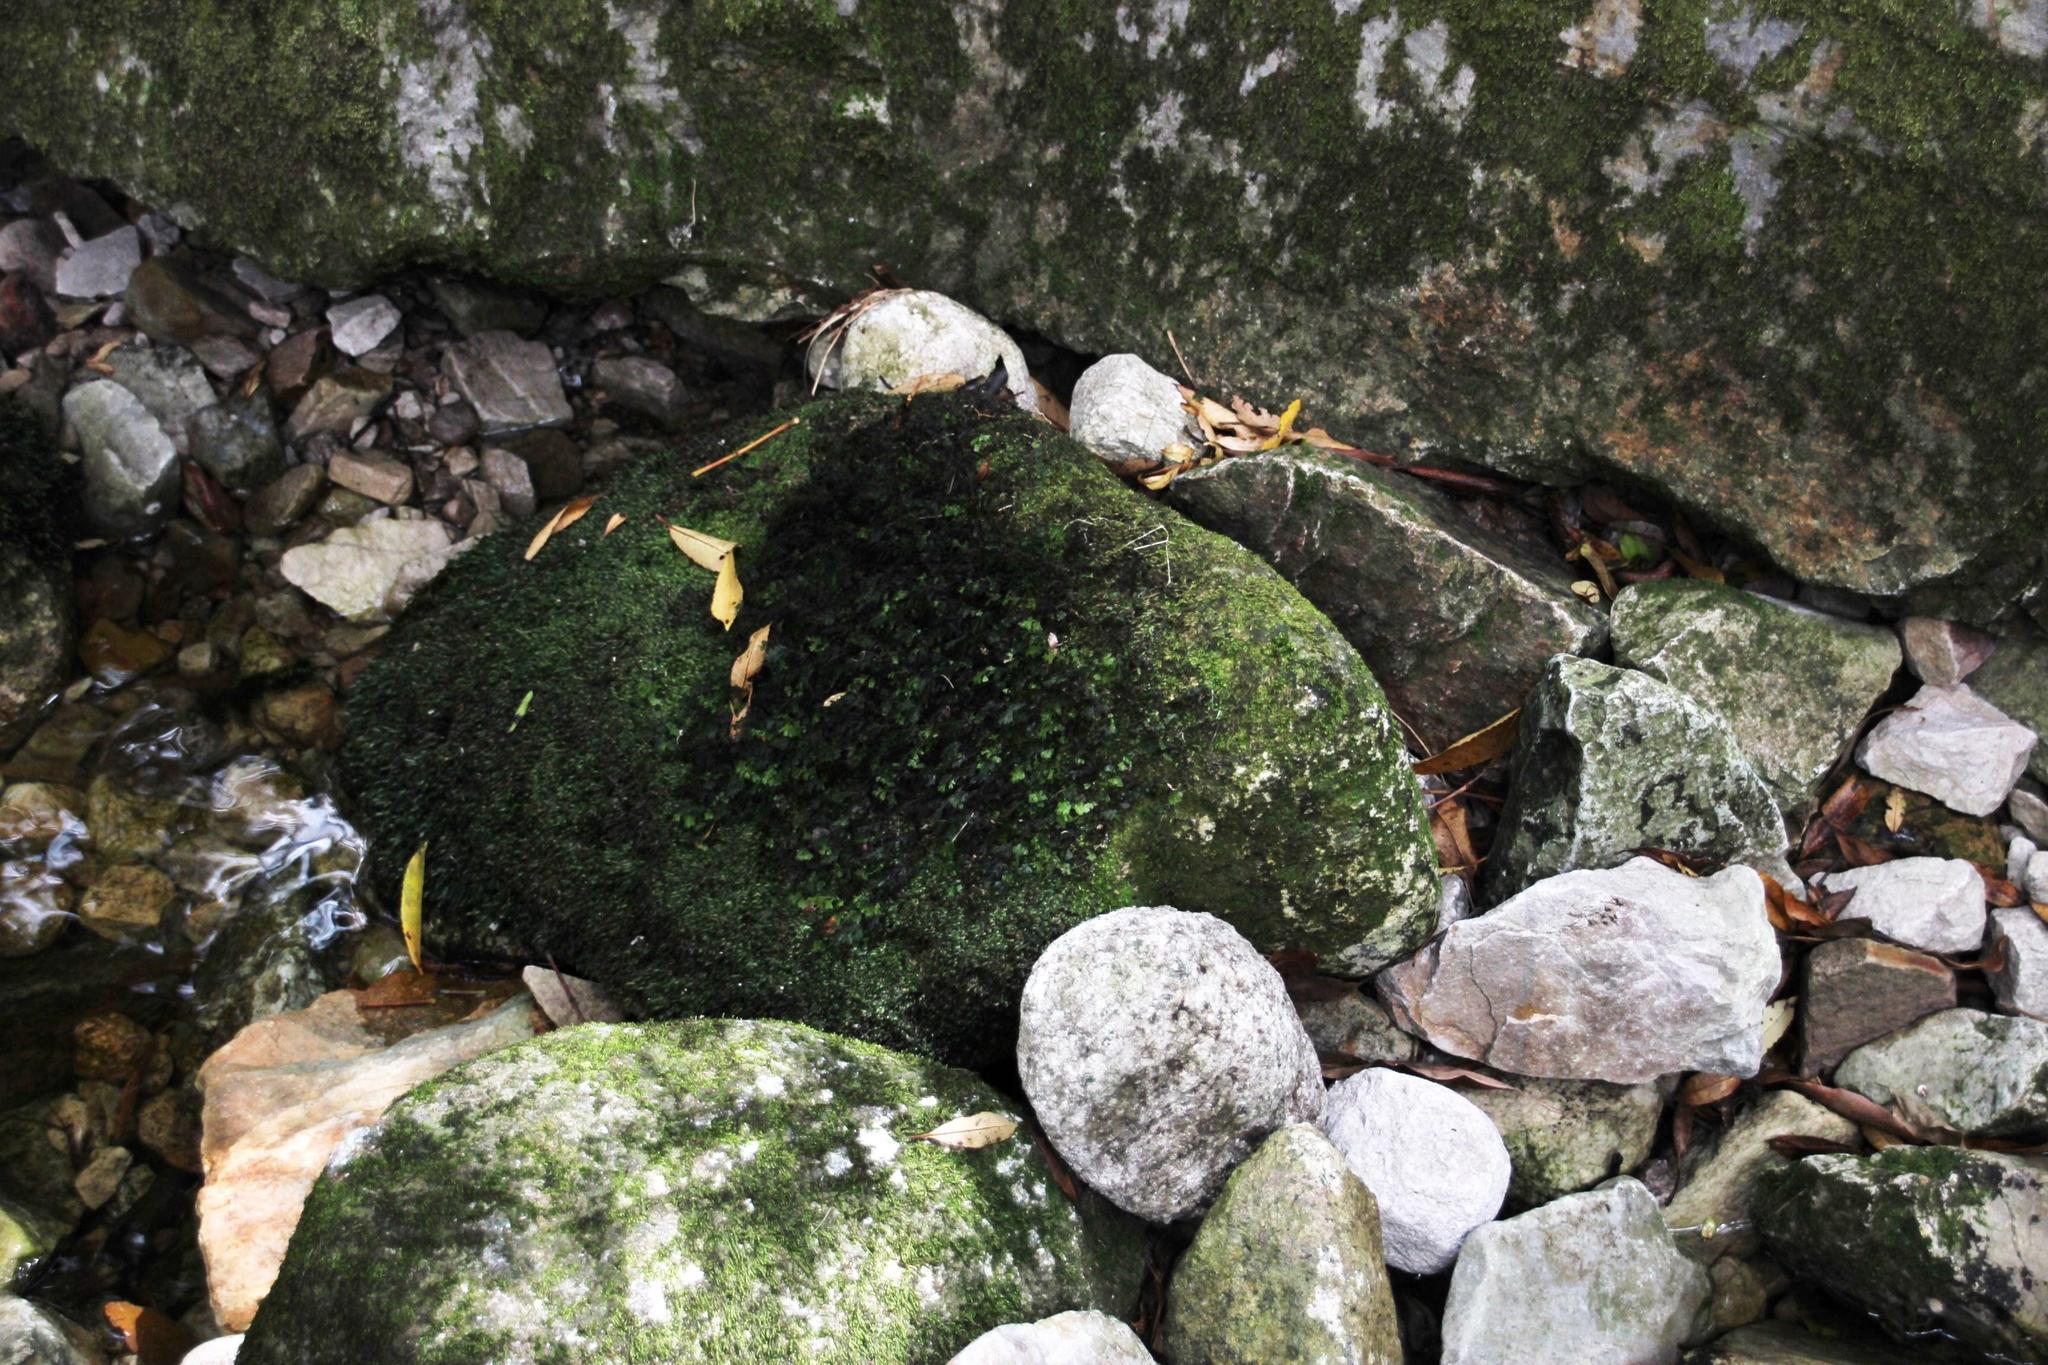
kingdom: Plantae
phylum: Tracheophyta
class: Polypodiopsida
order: Hymenophyllales
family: Hymenophyllaceae
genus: Hymenophyllum
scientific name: Hymenophyllum tunbrigense
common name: Tunbridge filmy fern
